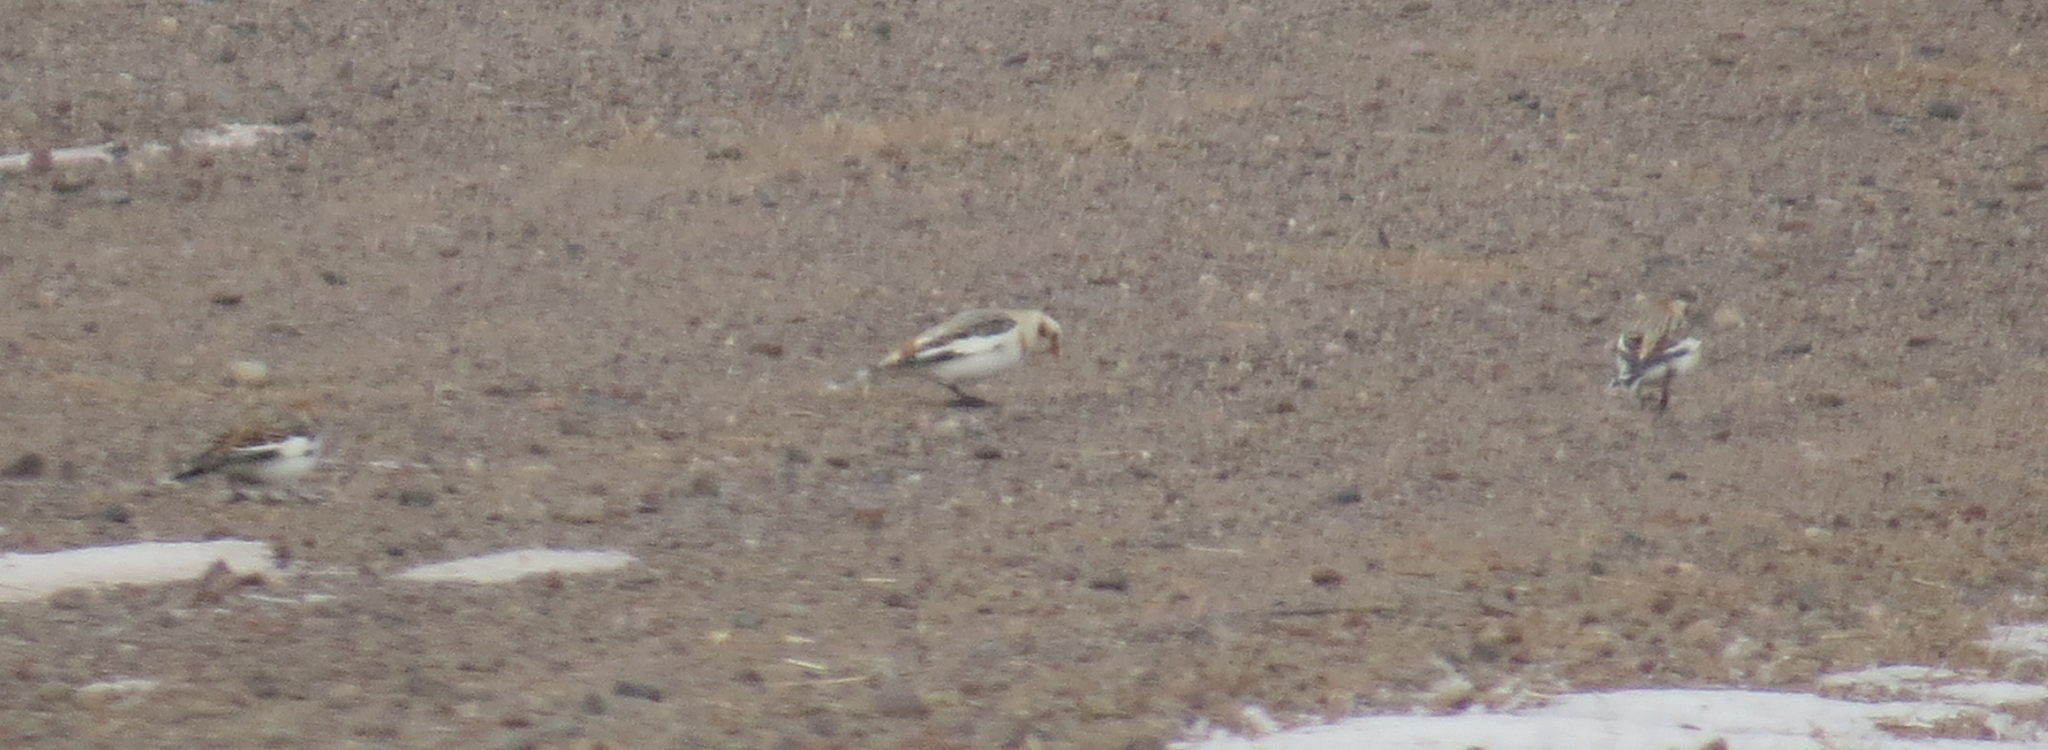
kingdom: Animalia
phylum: Chordata
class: Aves
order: Passeriformes
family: Calcariidae
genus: Plectrophenax
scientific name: Plectrophenax nivalis
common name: Snow bunting
